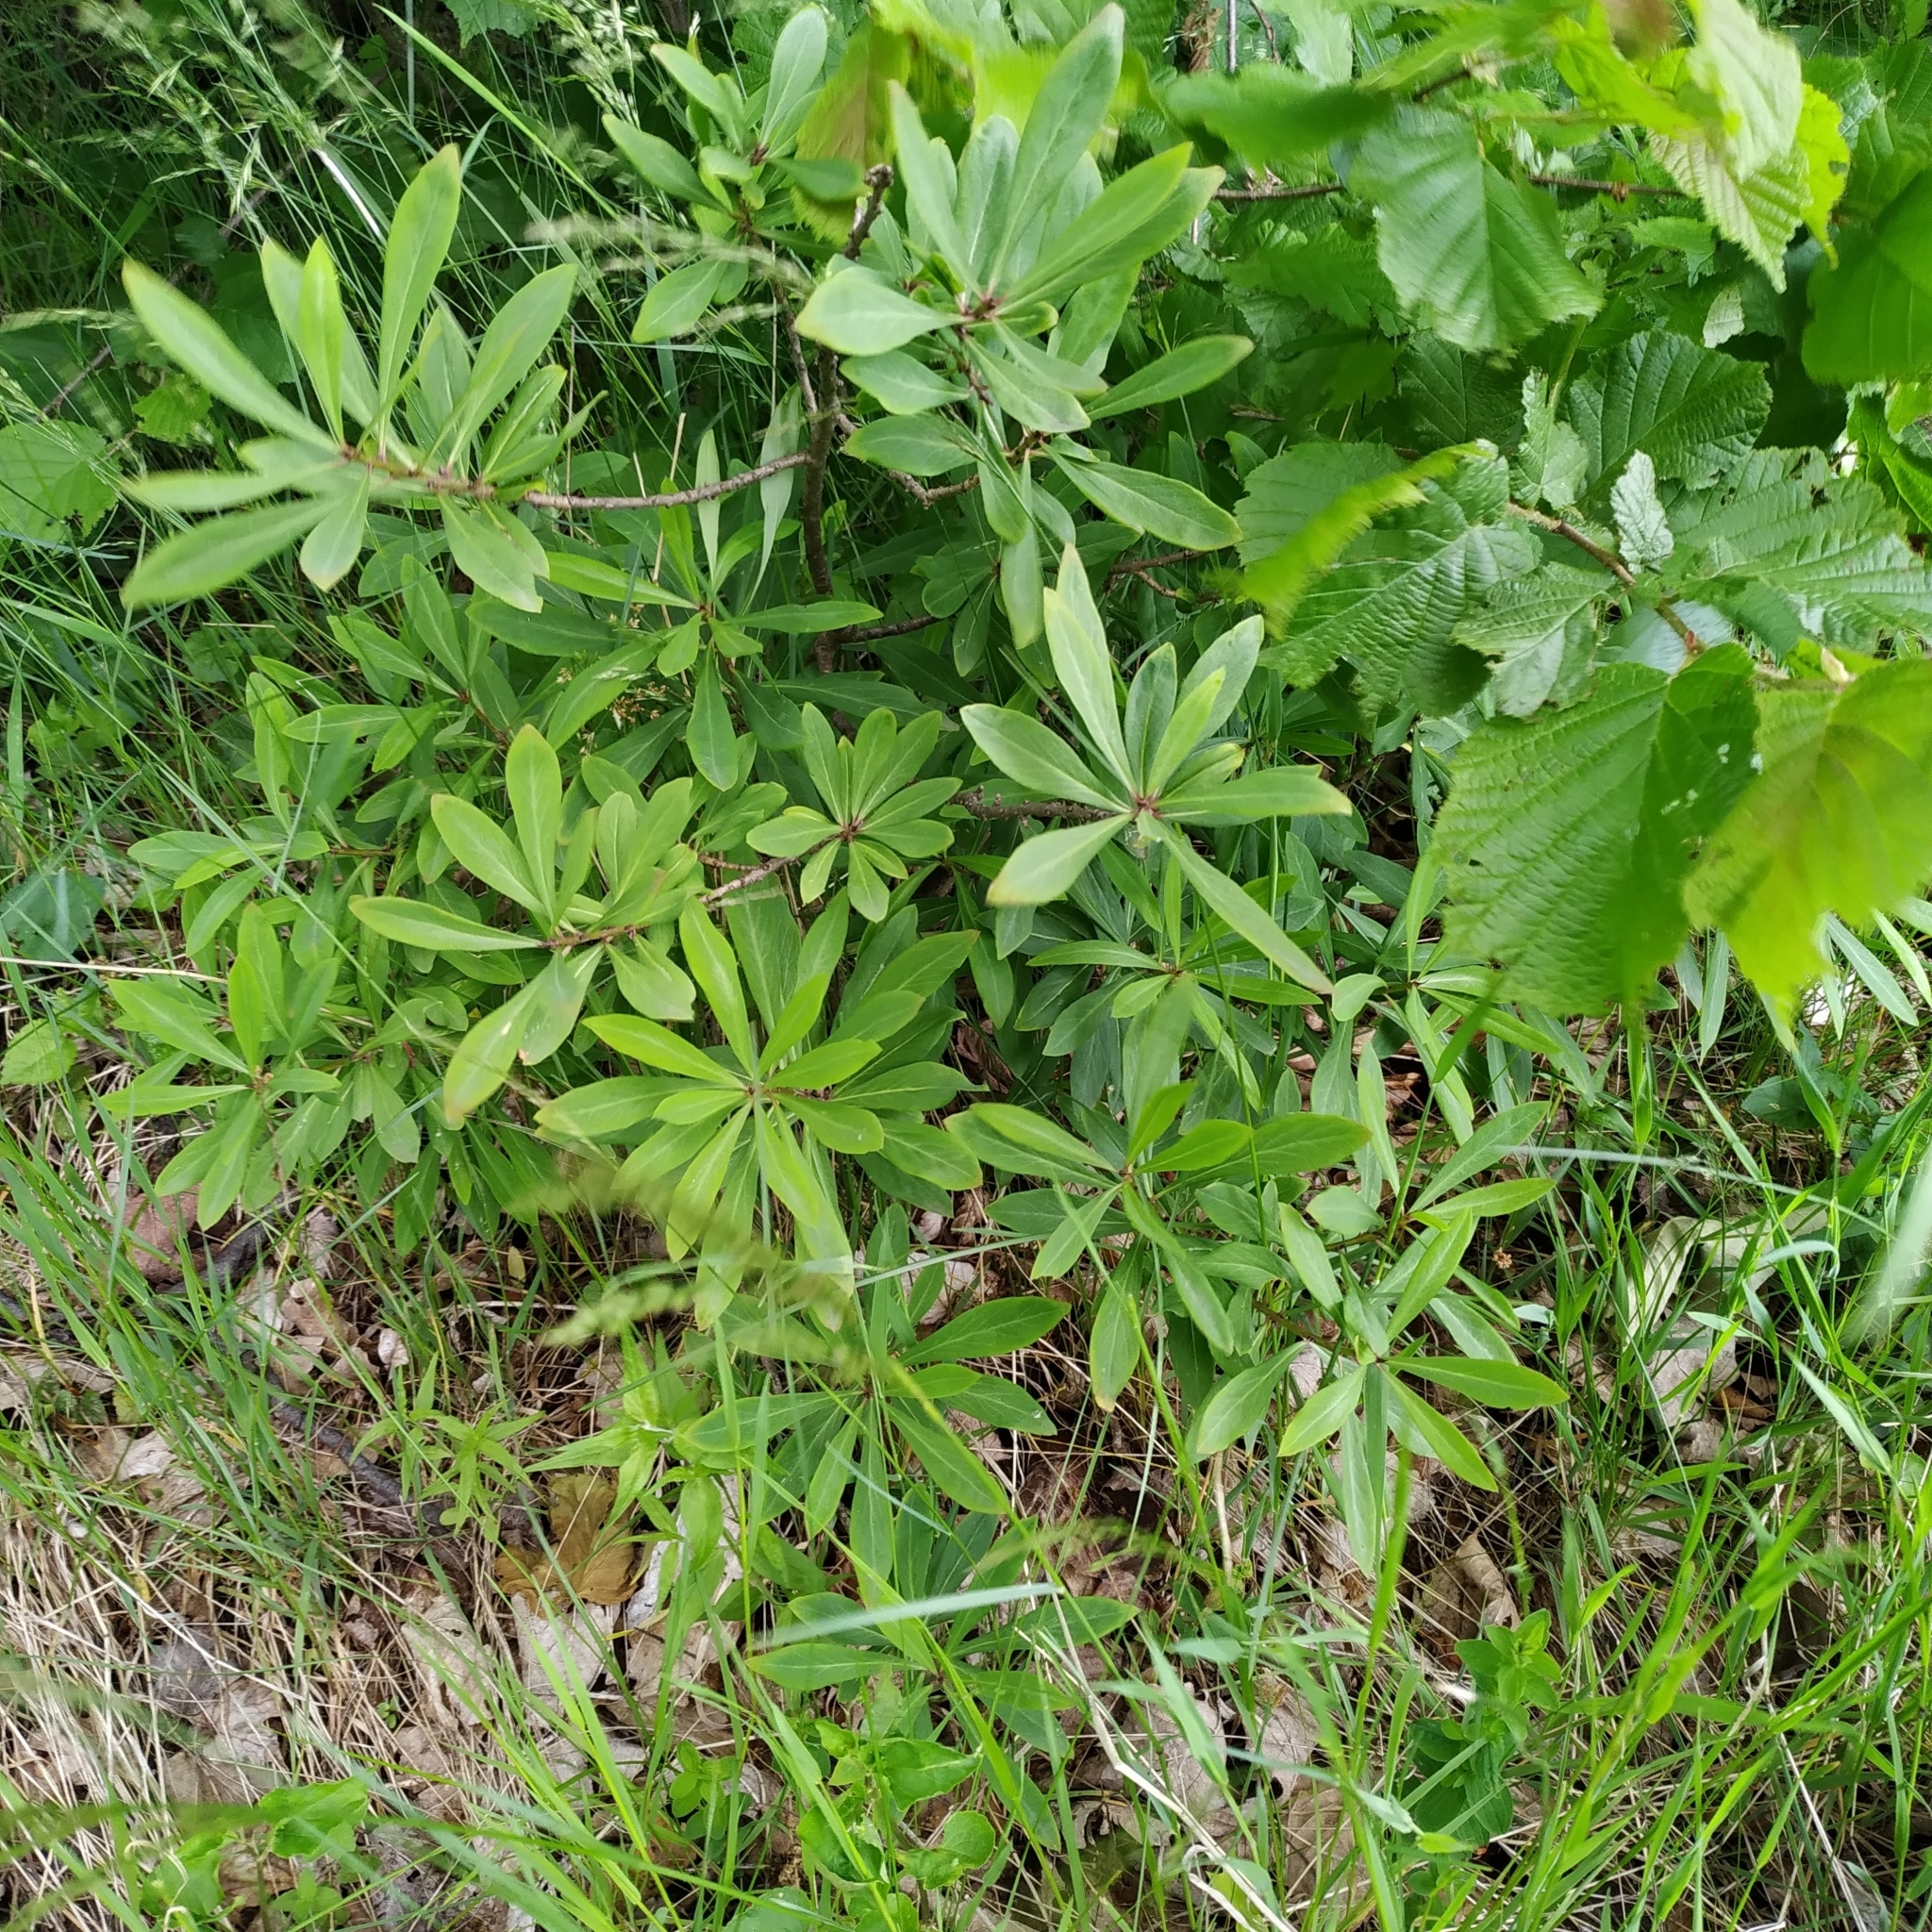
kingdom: Plantae
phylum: Tracheophyta
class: Magnoliopsida
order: Malvales
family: Thymelaeaceae
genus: Daphne
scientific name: Daphne mezereum
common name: Mezereon
